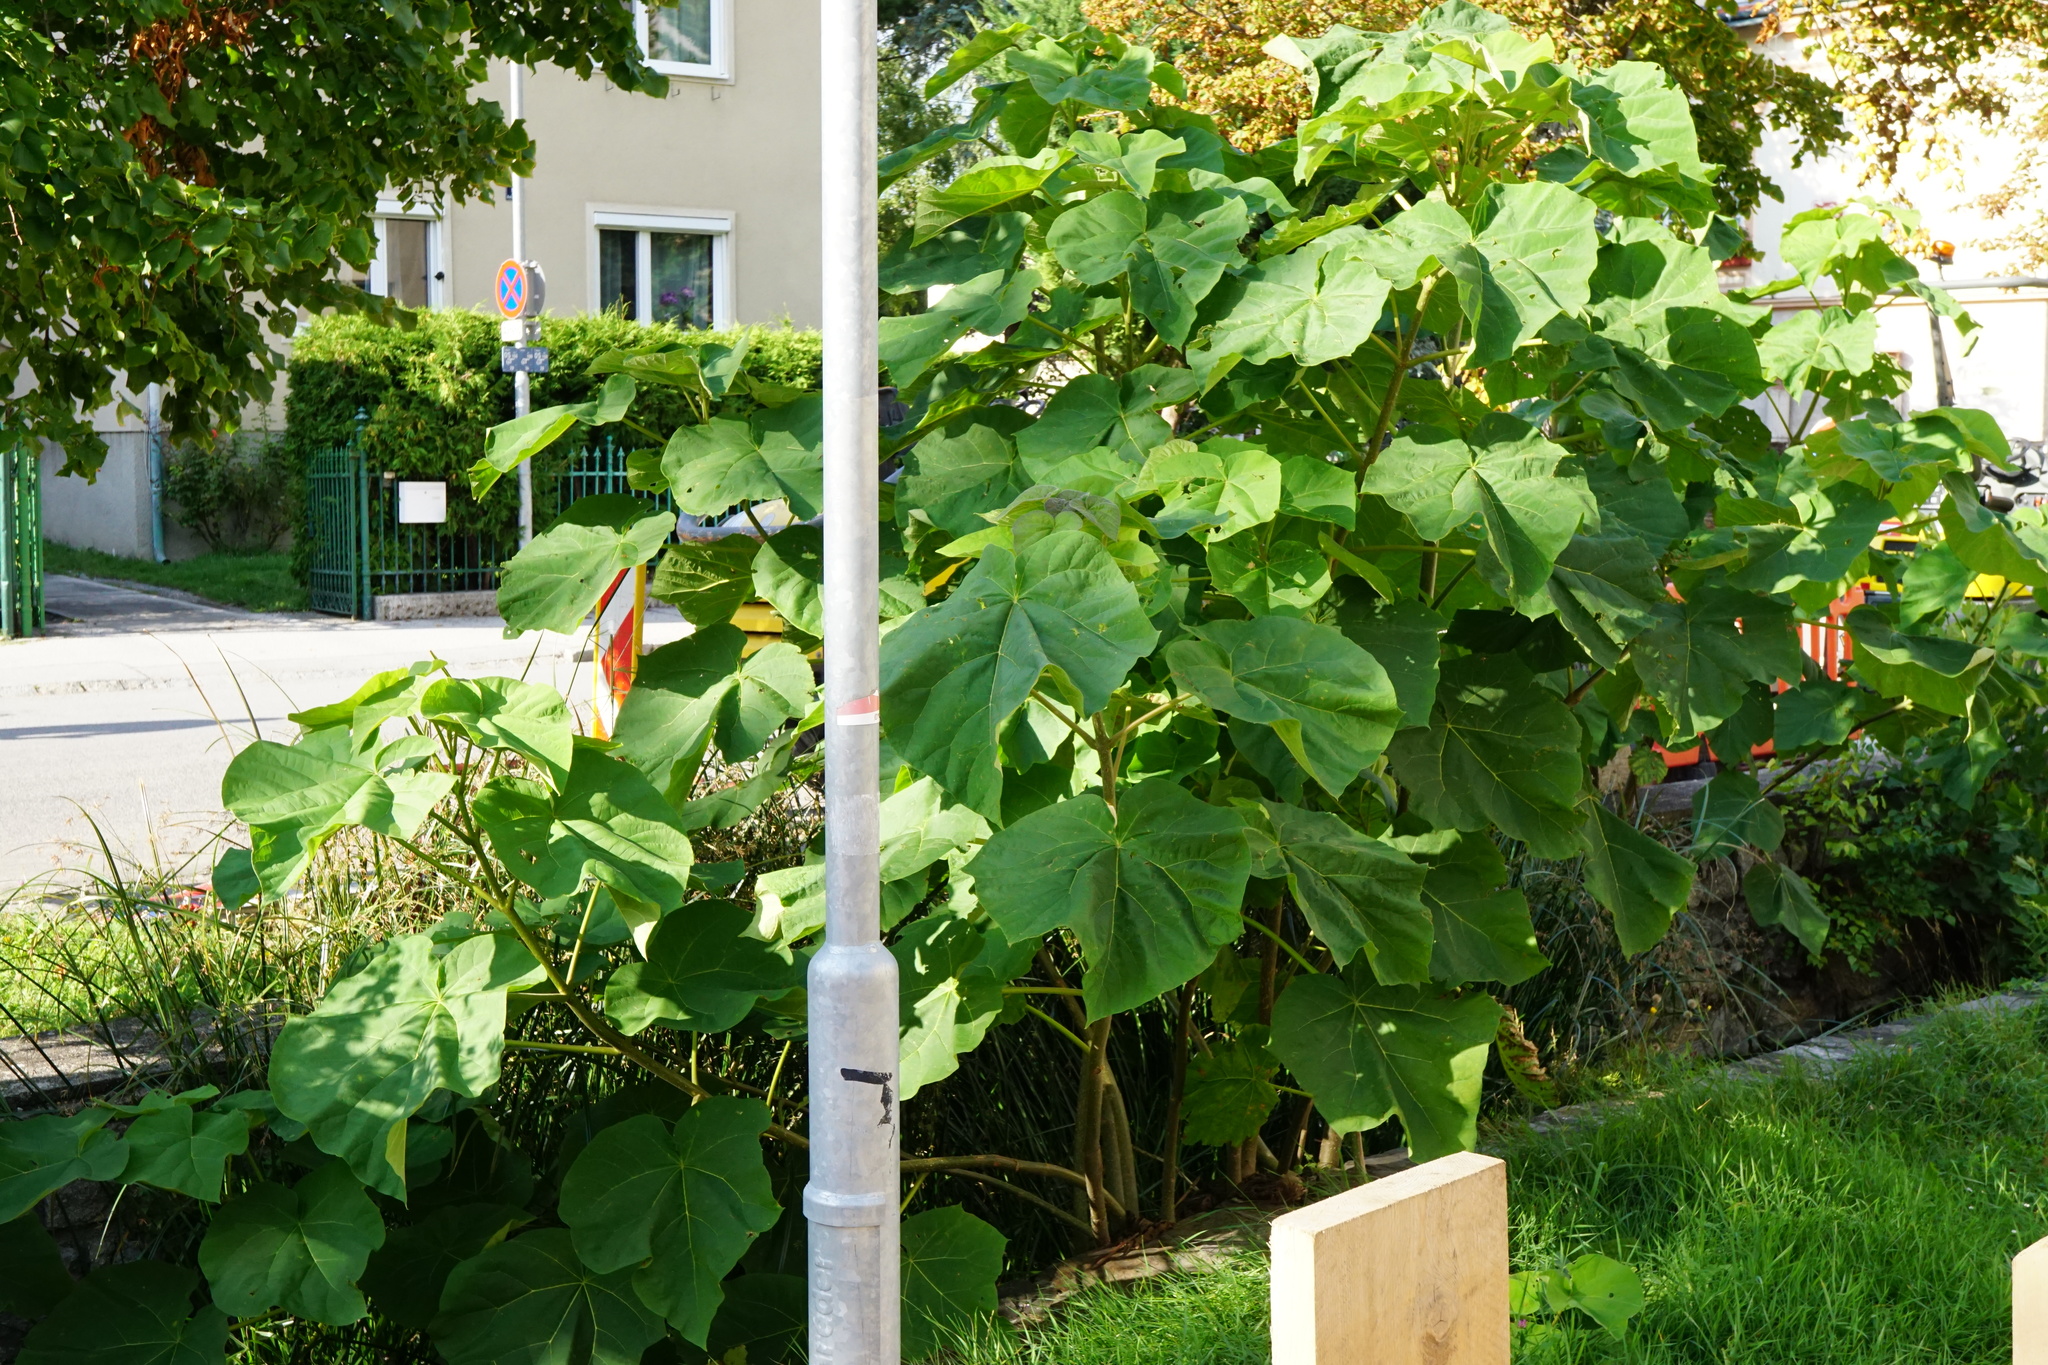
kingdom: Plantae
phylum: Tracheophyta
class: Magnoliopsida
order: Lamiales
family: Paulowniaceae
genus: Paulownia
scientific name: Paulownia tomentosa
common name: Foxglove-tree
